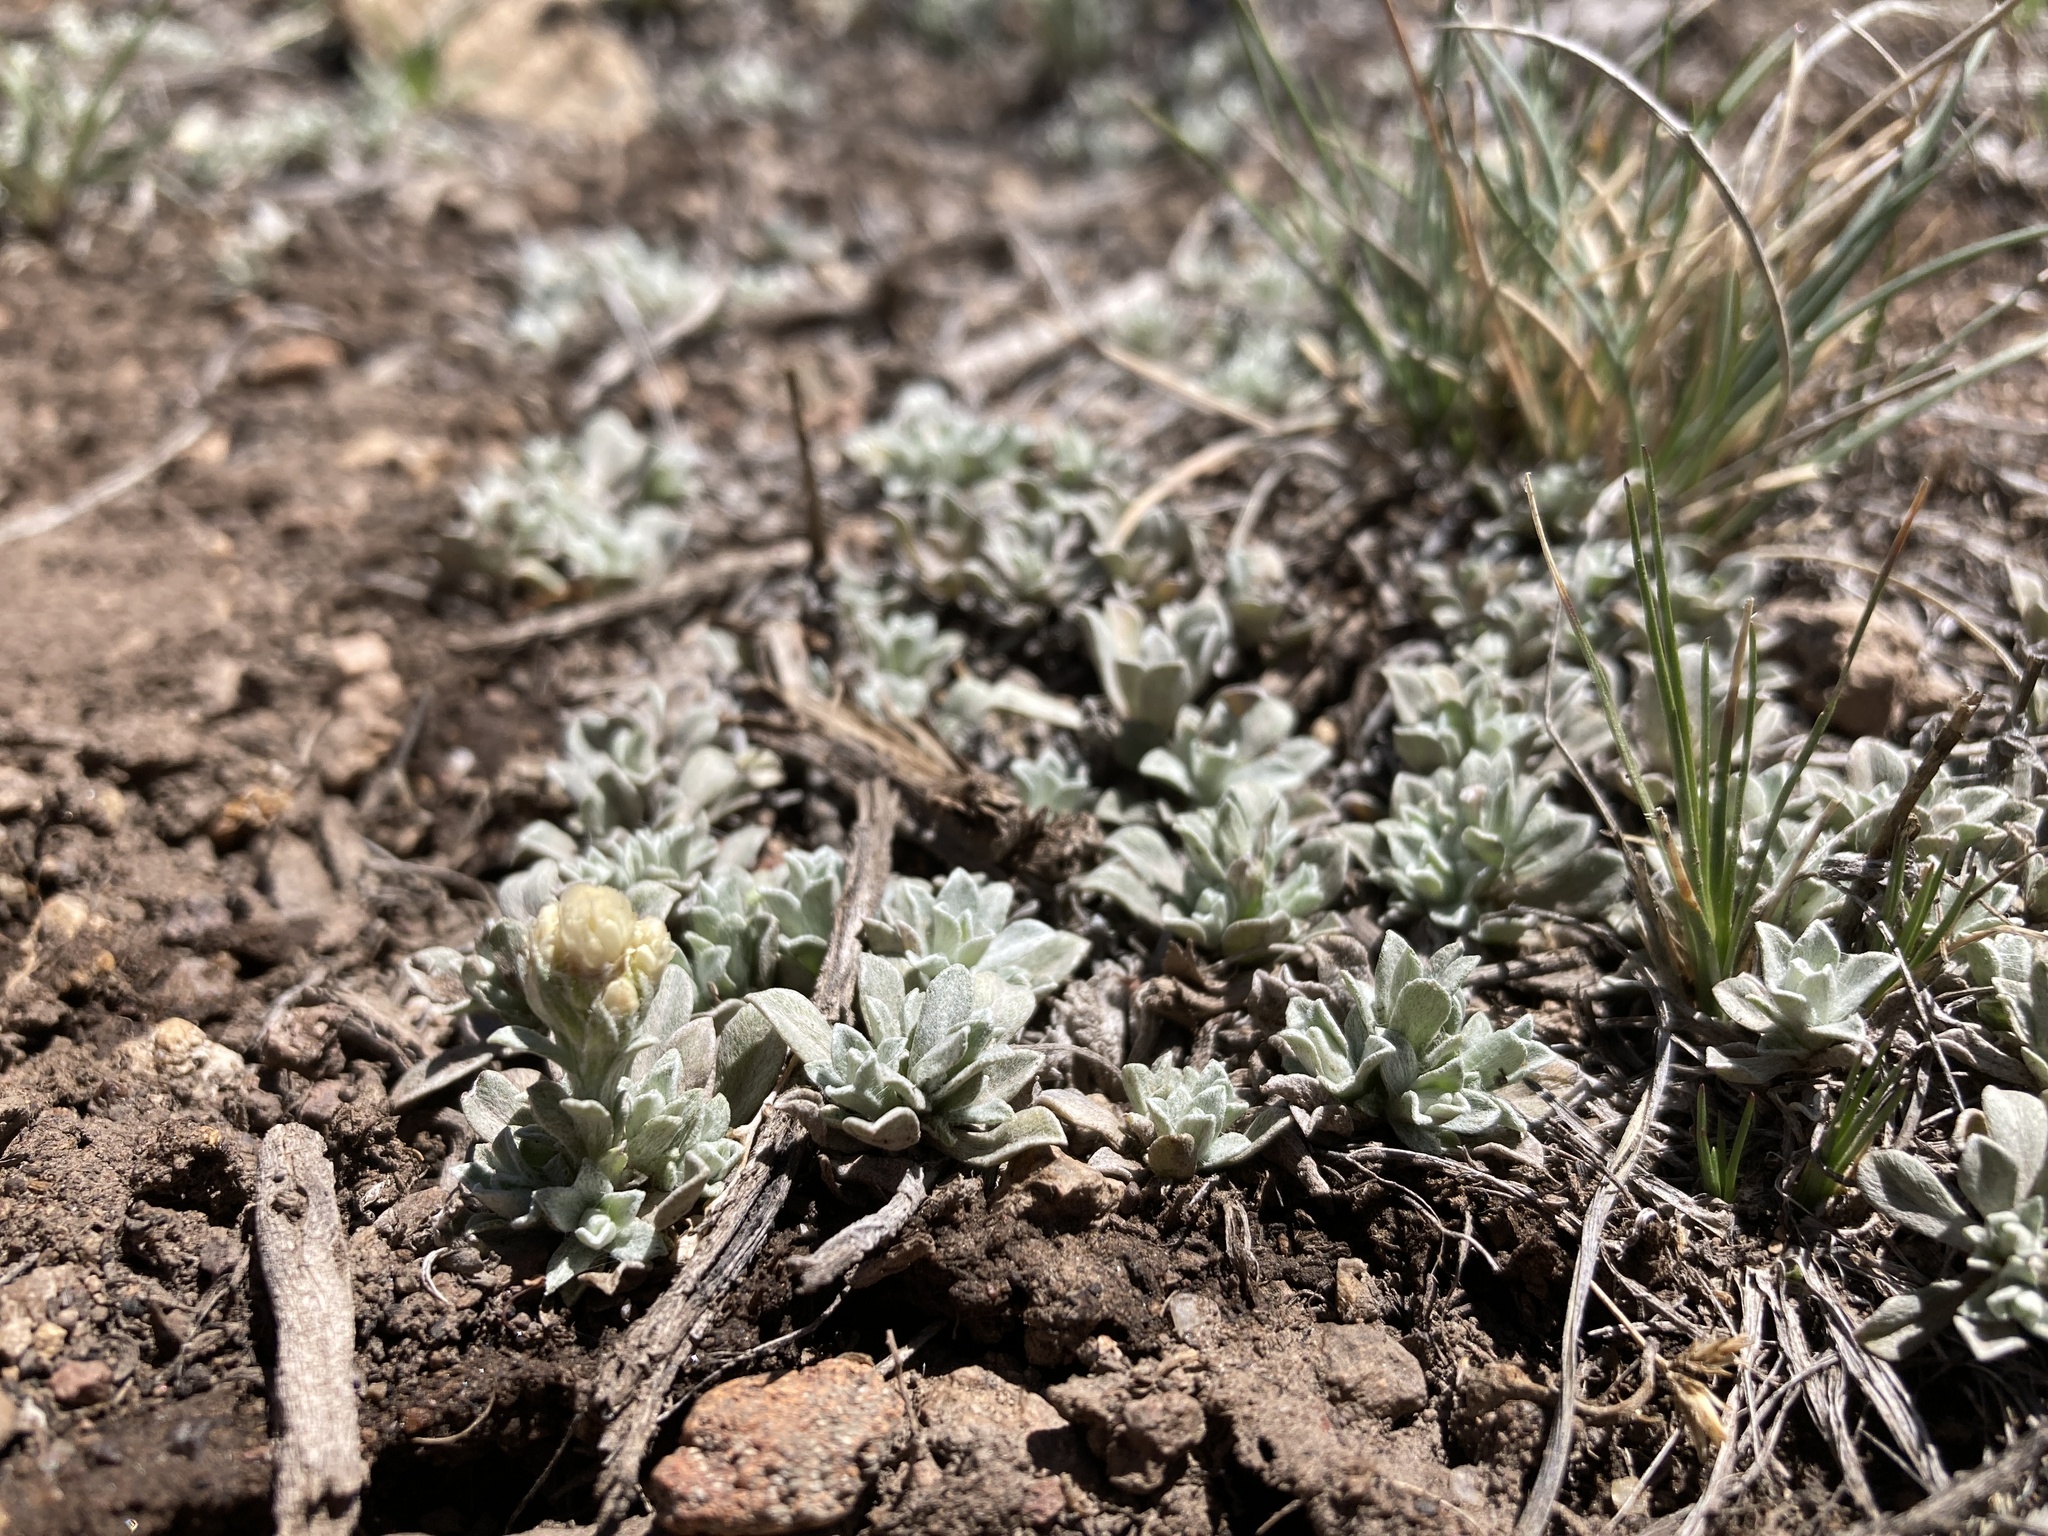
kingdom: Plantae
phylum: Tracheophyta
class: Magnoliopsida
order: Asterales
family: Asteraceae
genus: Antennaria
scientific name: Antennaria parvifolia
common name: Nuttall's pussytoes
